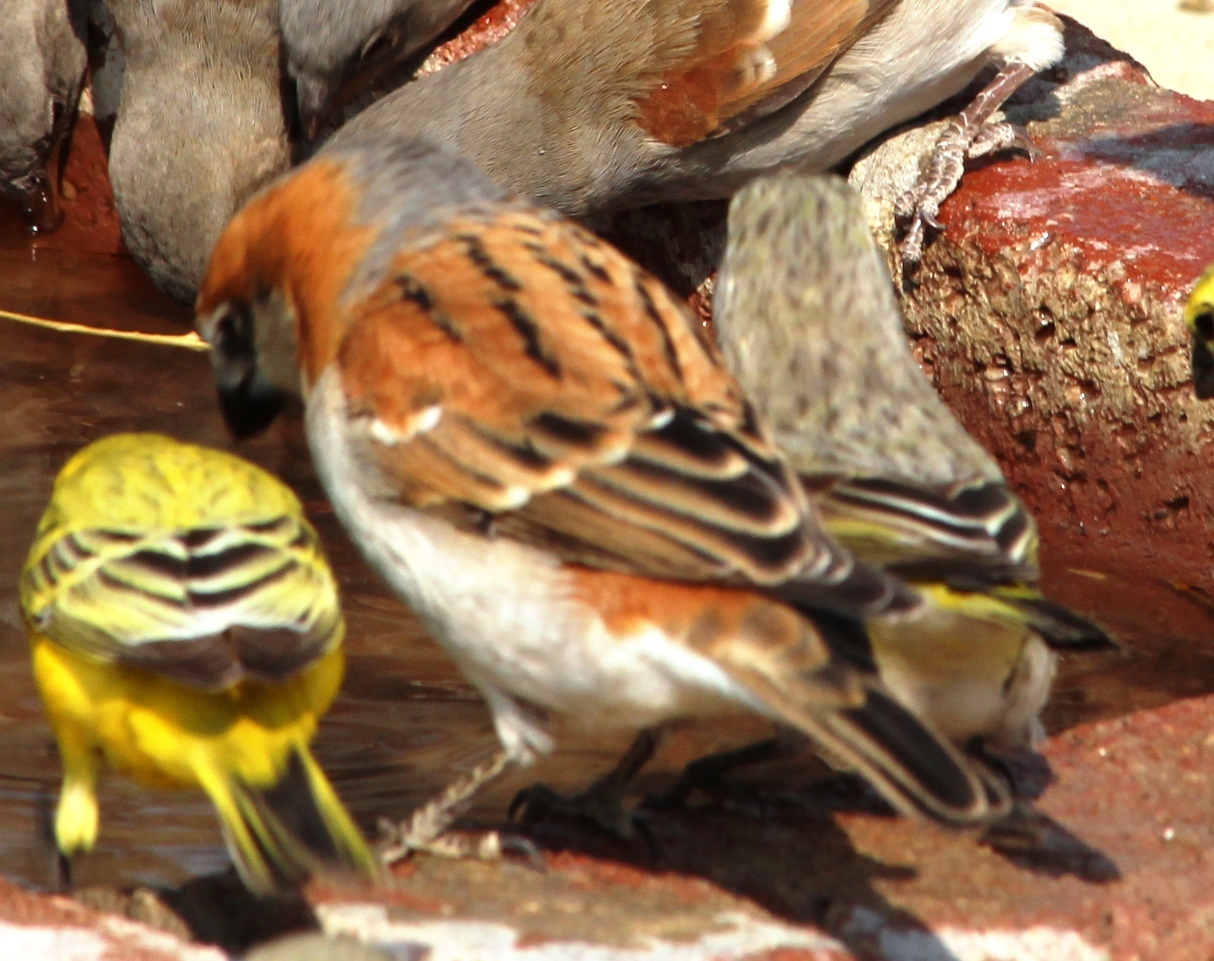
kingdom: Animalia
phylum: Chordata
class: Aves
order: Passeriformes
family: Passeridae
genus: Passer
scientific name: Passer motitensis
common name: Great sparrow
